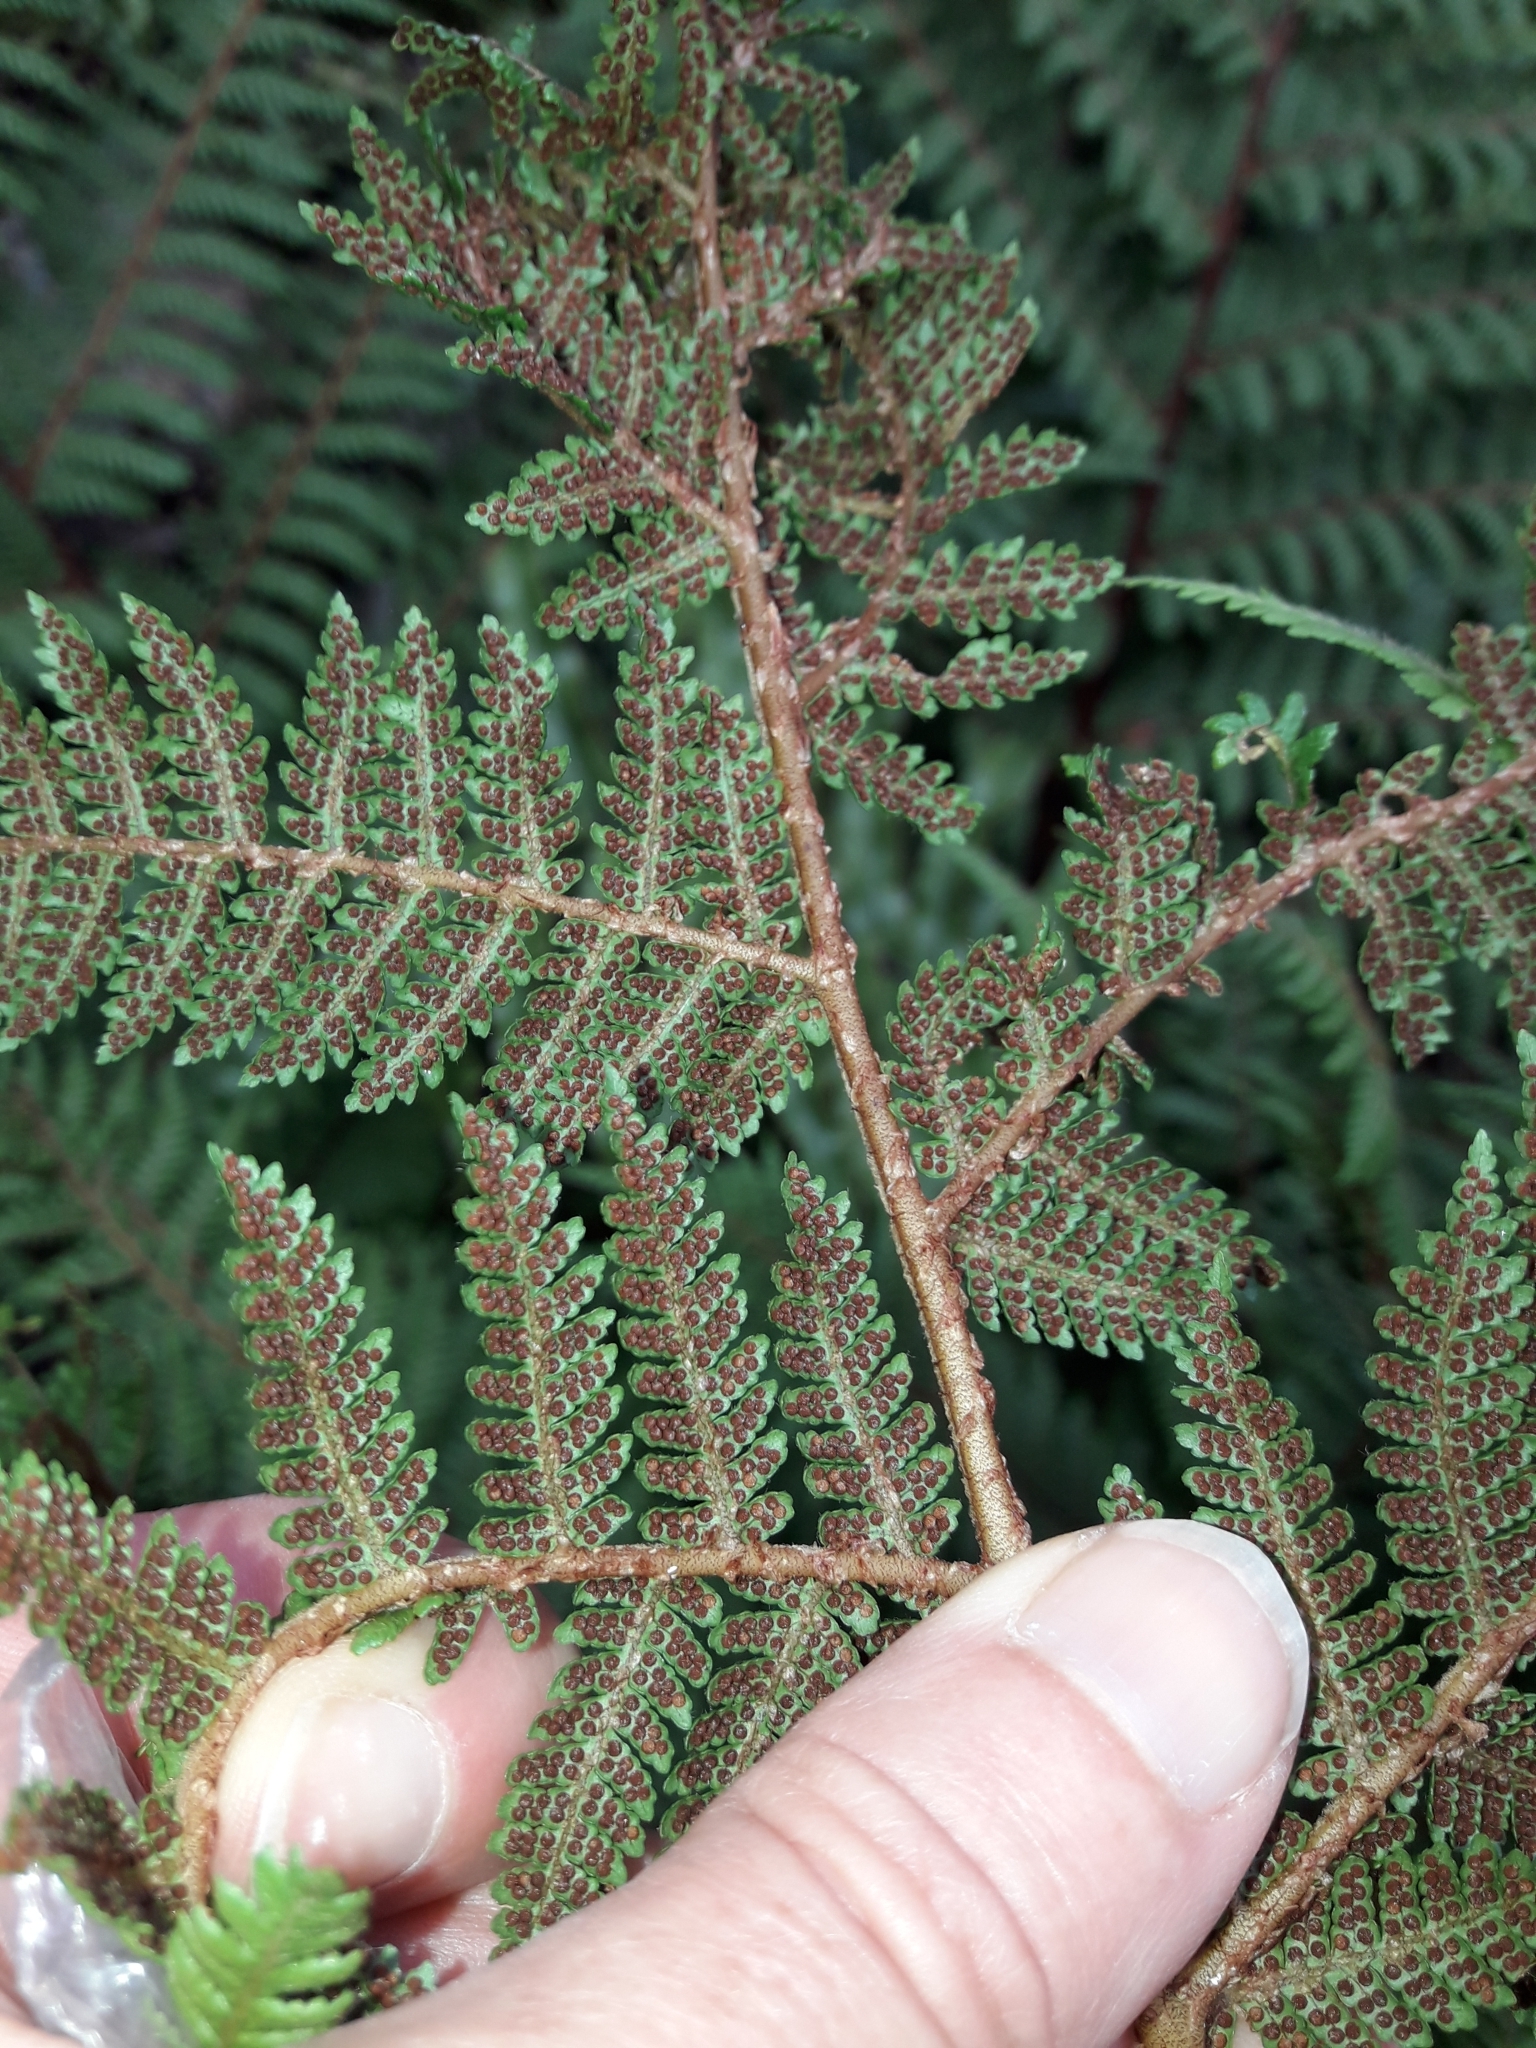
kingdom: Plantae
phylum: Tracheophyta
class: Polypodiopsida
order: Cyatheales
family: Cyatheaceae
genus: Alsophila
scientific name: Alsophila colensoi
